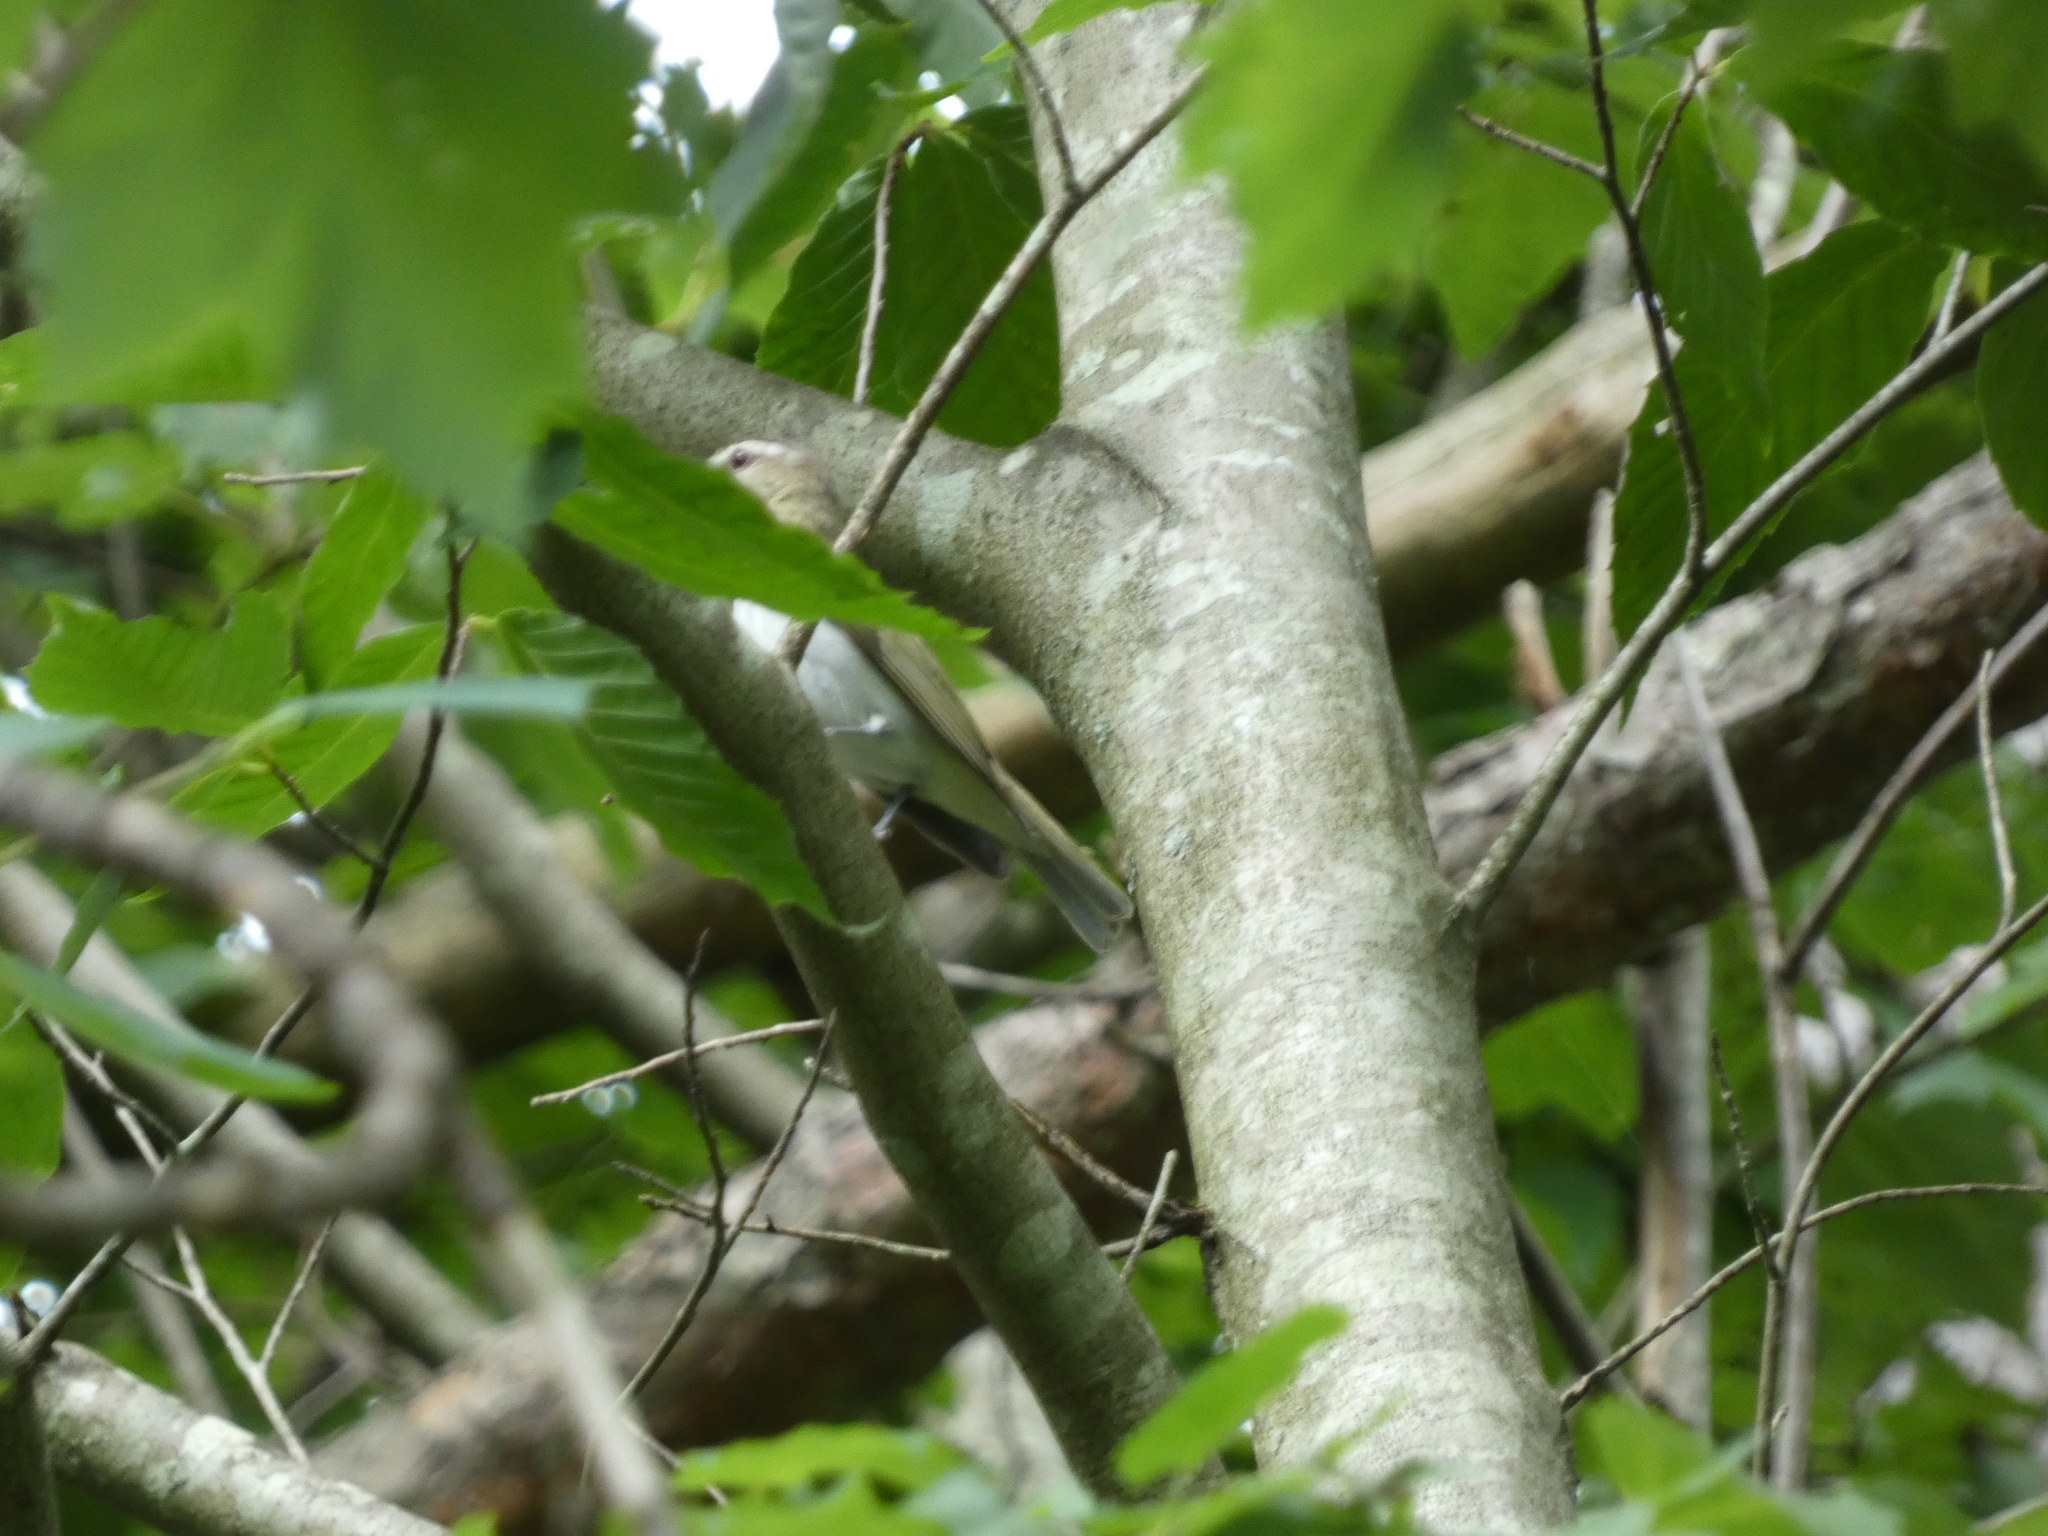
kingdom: Animalia
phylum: Chordata
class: Aves
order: Passeriformes
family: Vireonidae
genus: Vireo
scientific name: Vireo olivaceus
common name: Red-eyed vireo
